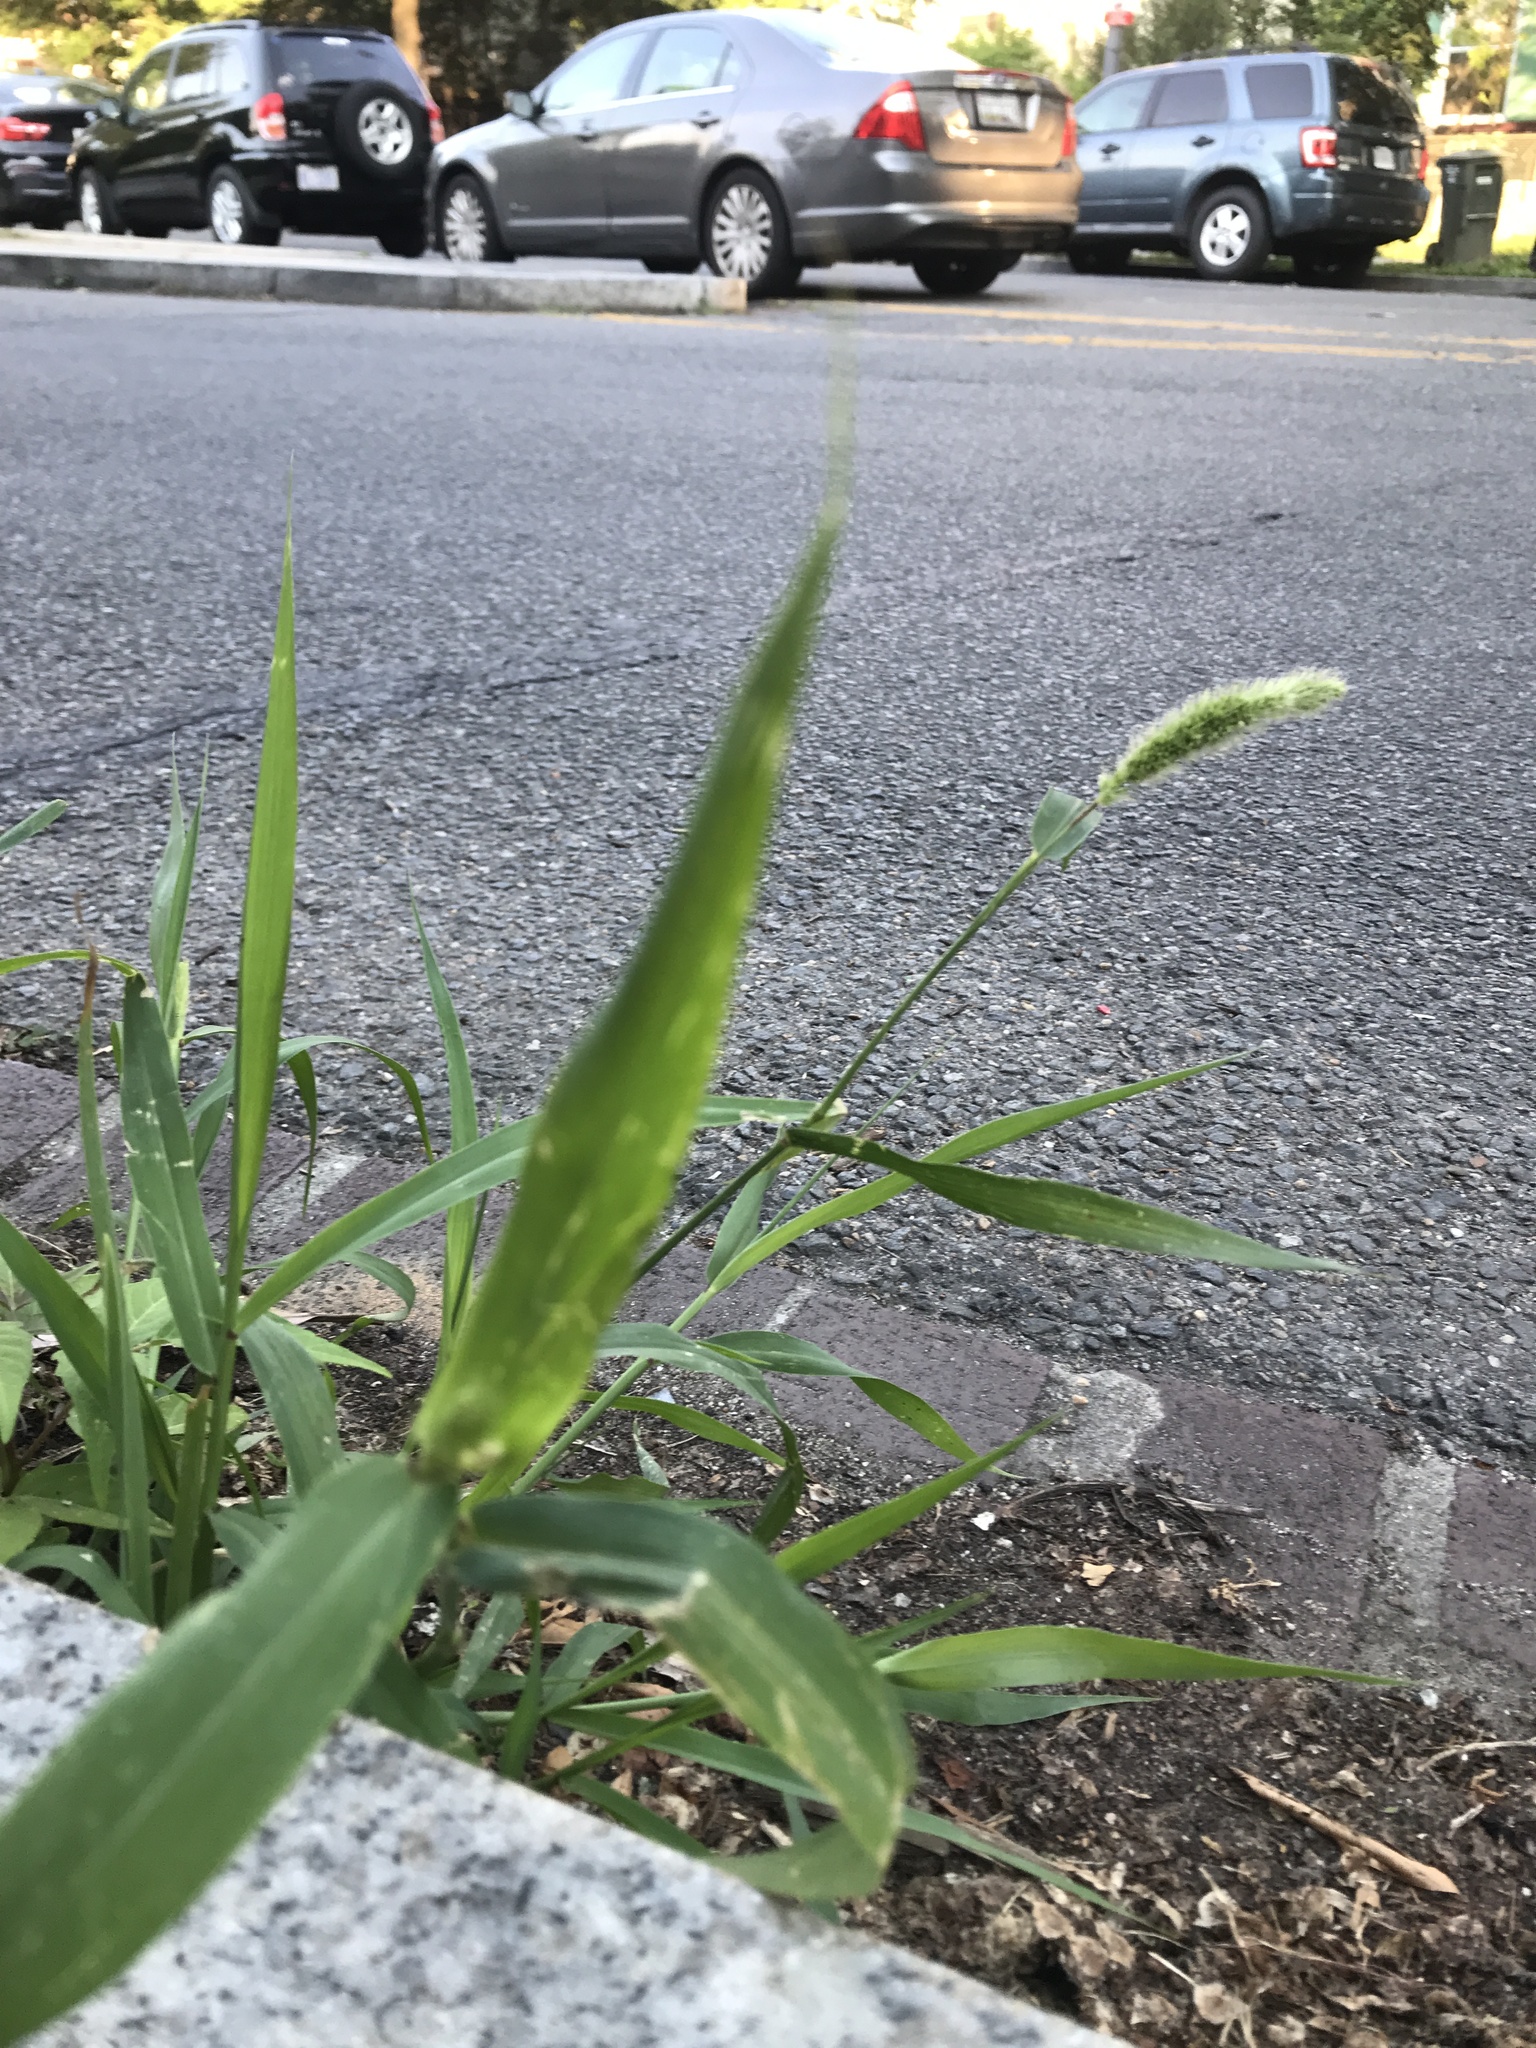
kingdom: Plantae
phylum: Tracheophyta
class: Liliopsida
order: Poales
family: Poaceae
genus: Setaria
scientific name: Setaria viridis
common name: Green bristlegrass
